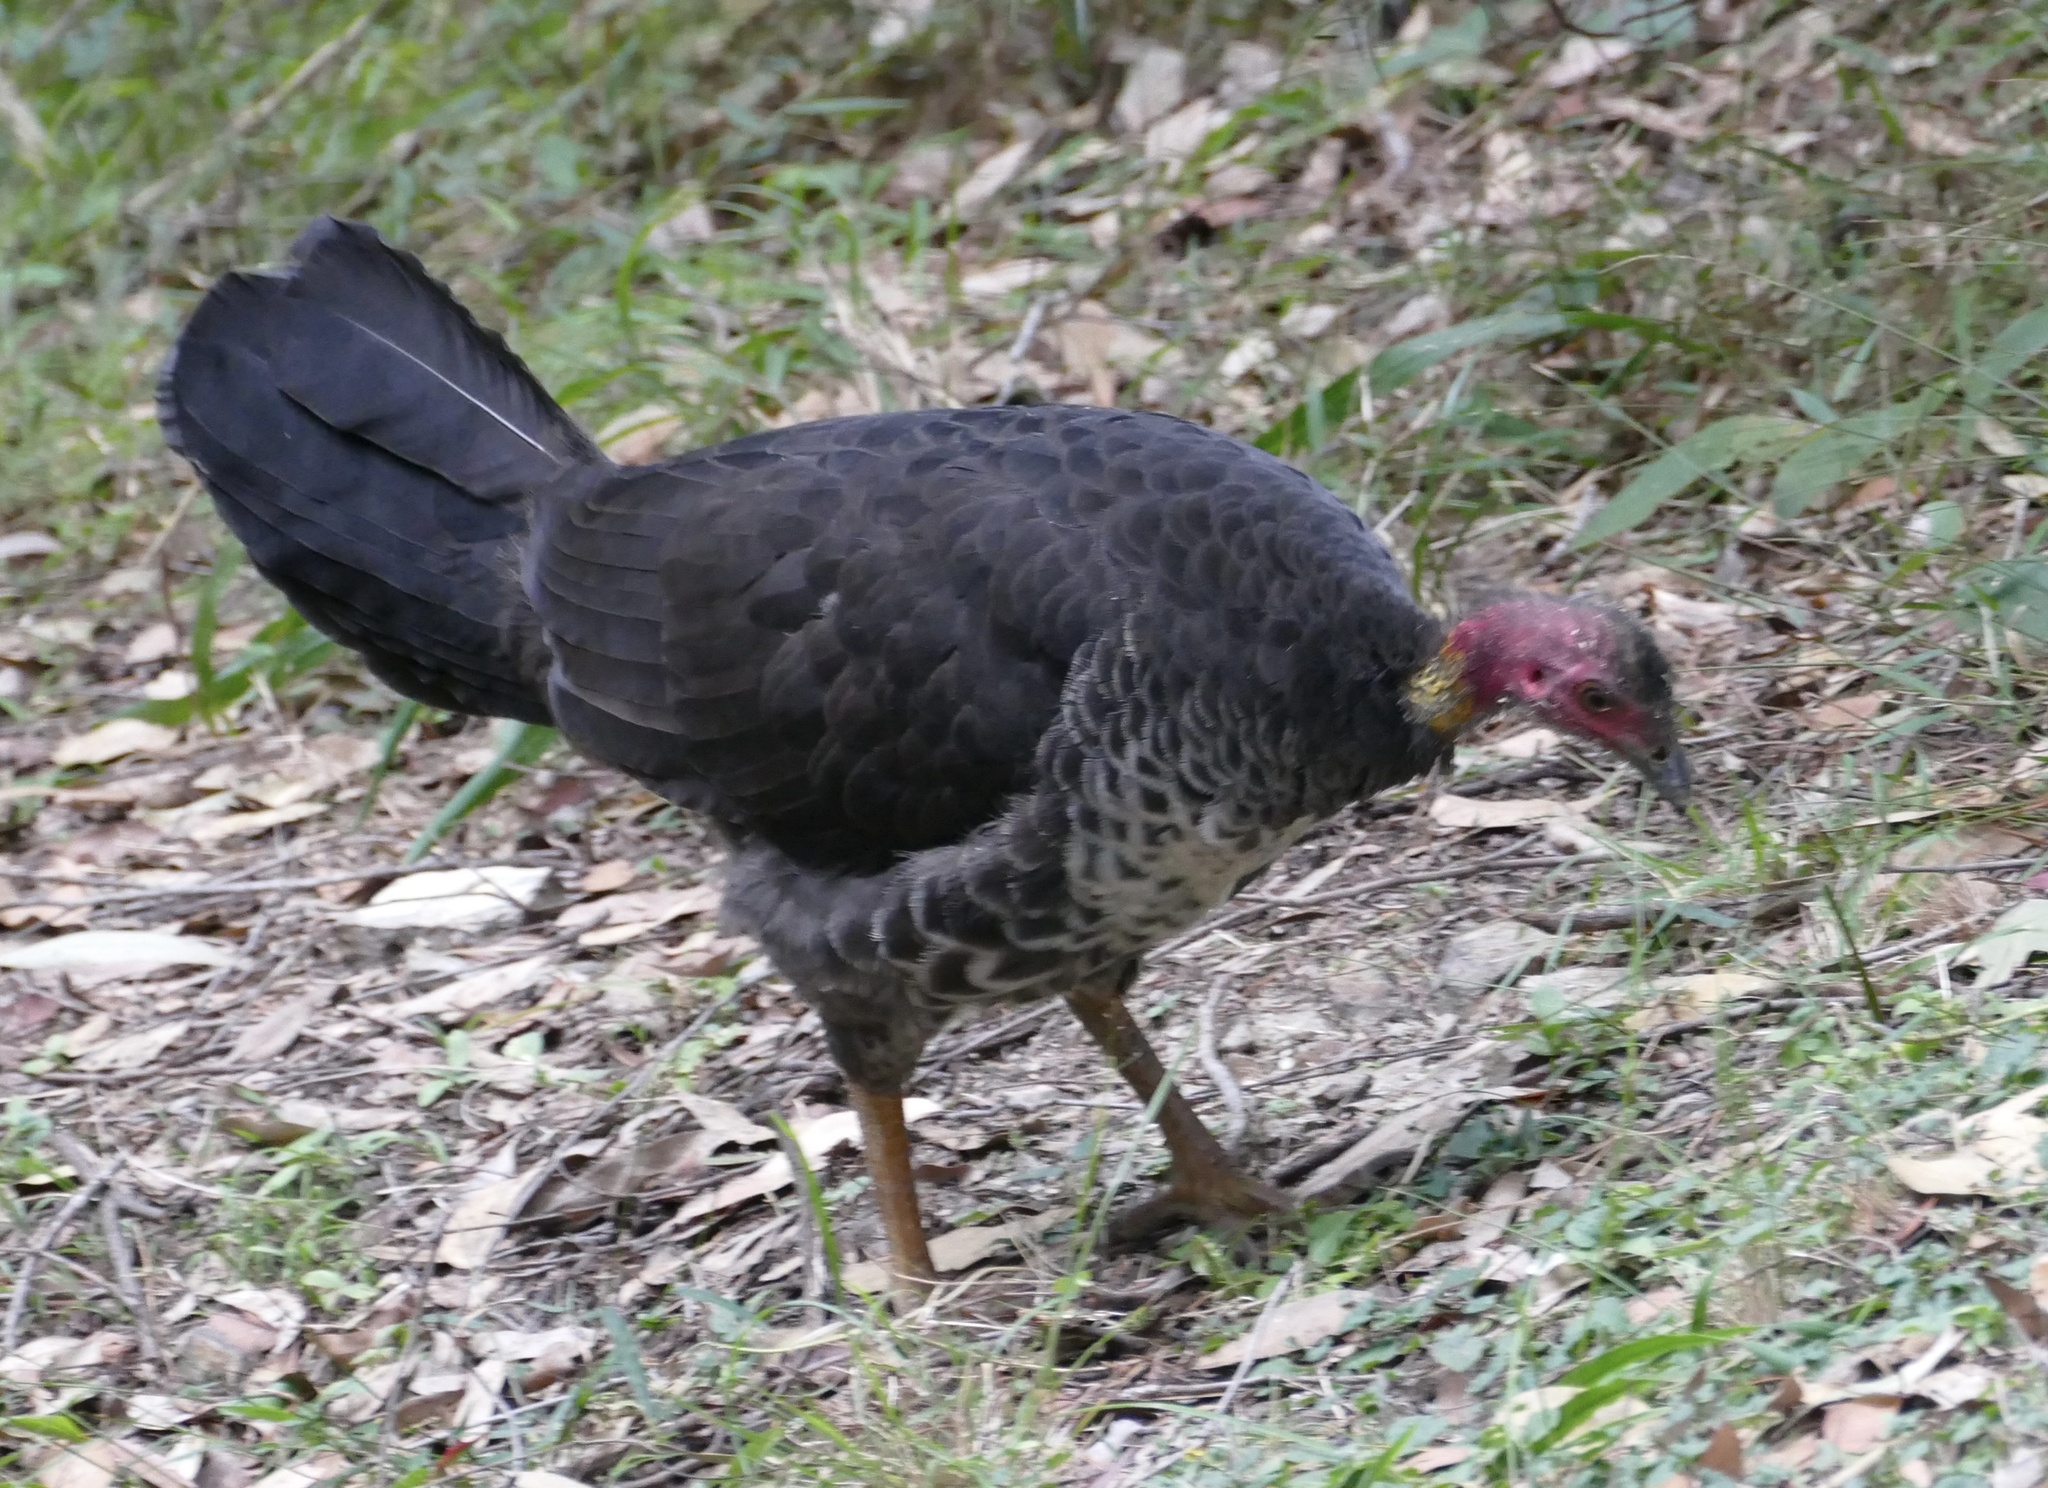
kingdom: Animalia
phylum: Chordata
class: Aves
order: Galliformes
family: Megapodiidae
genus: Alectura
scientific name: Alectura lathami
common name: Australian brushturkey
